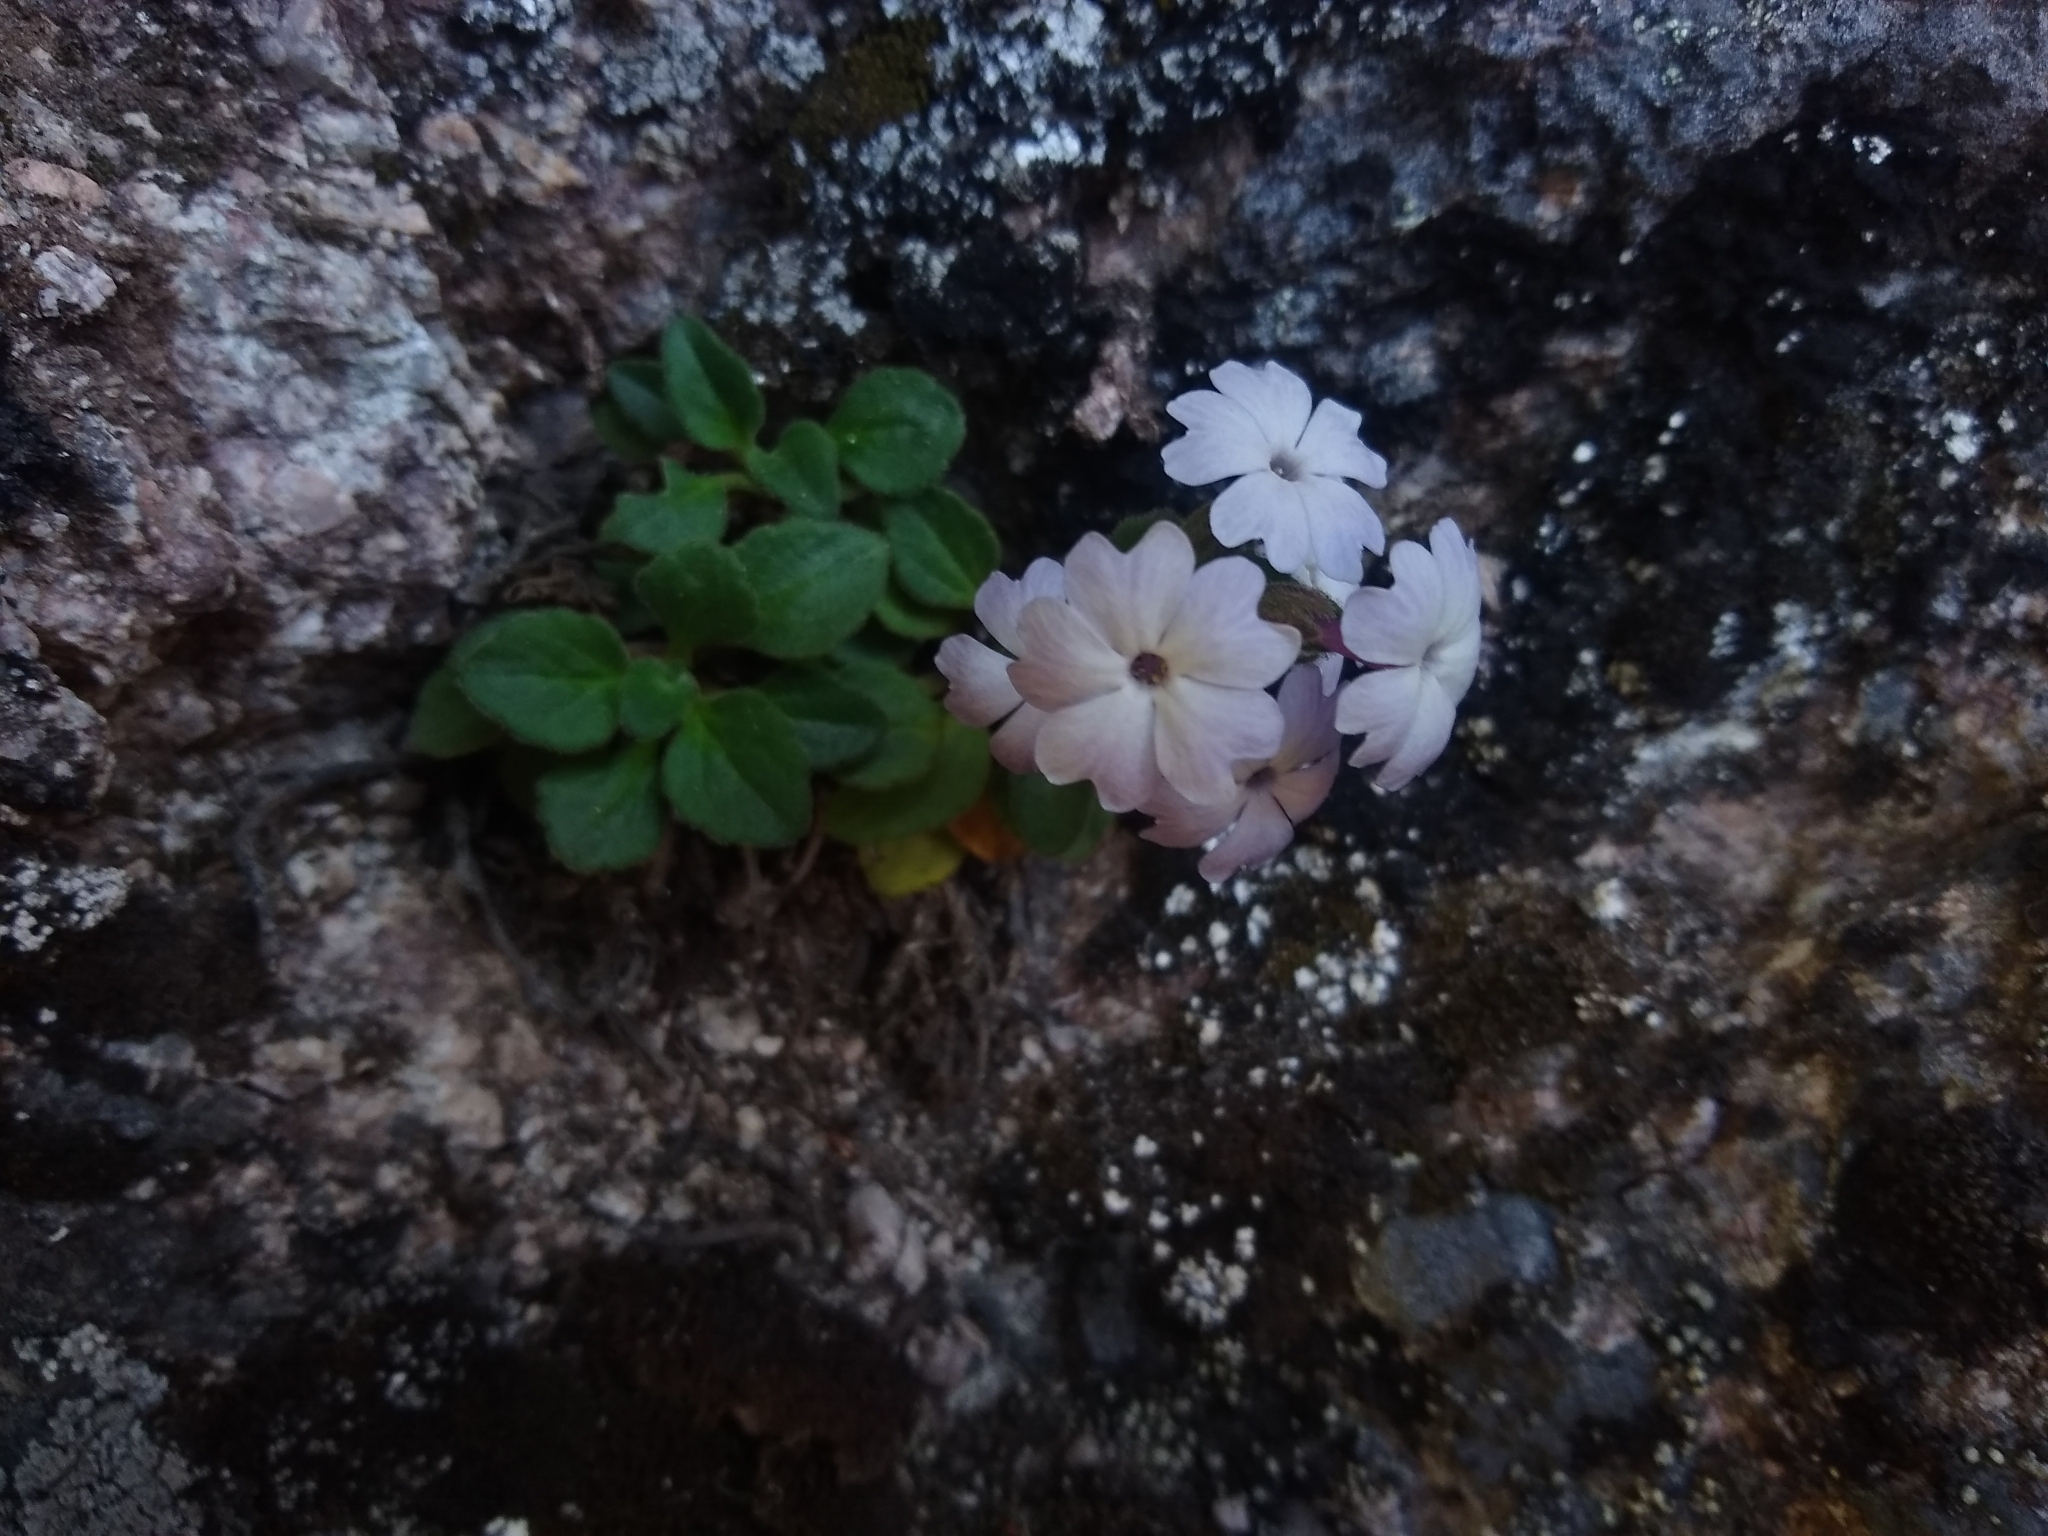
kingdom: Plantae
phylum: Tracheophyta
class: Magnoliopsida
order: Lamiales
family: Plantaginaceae
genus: Ourisia
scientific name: Ourisia fragrans
